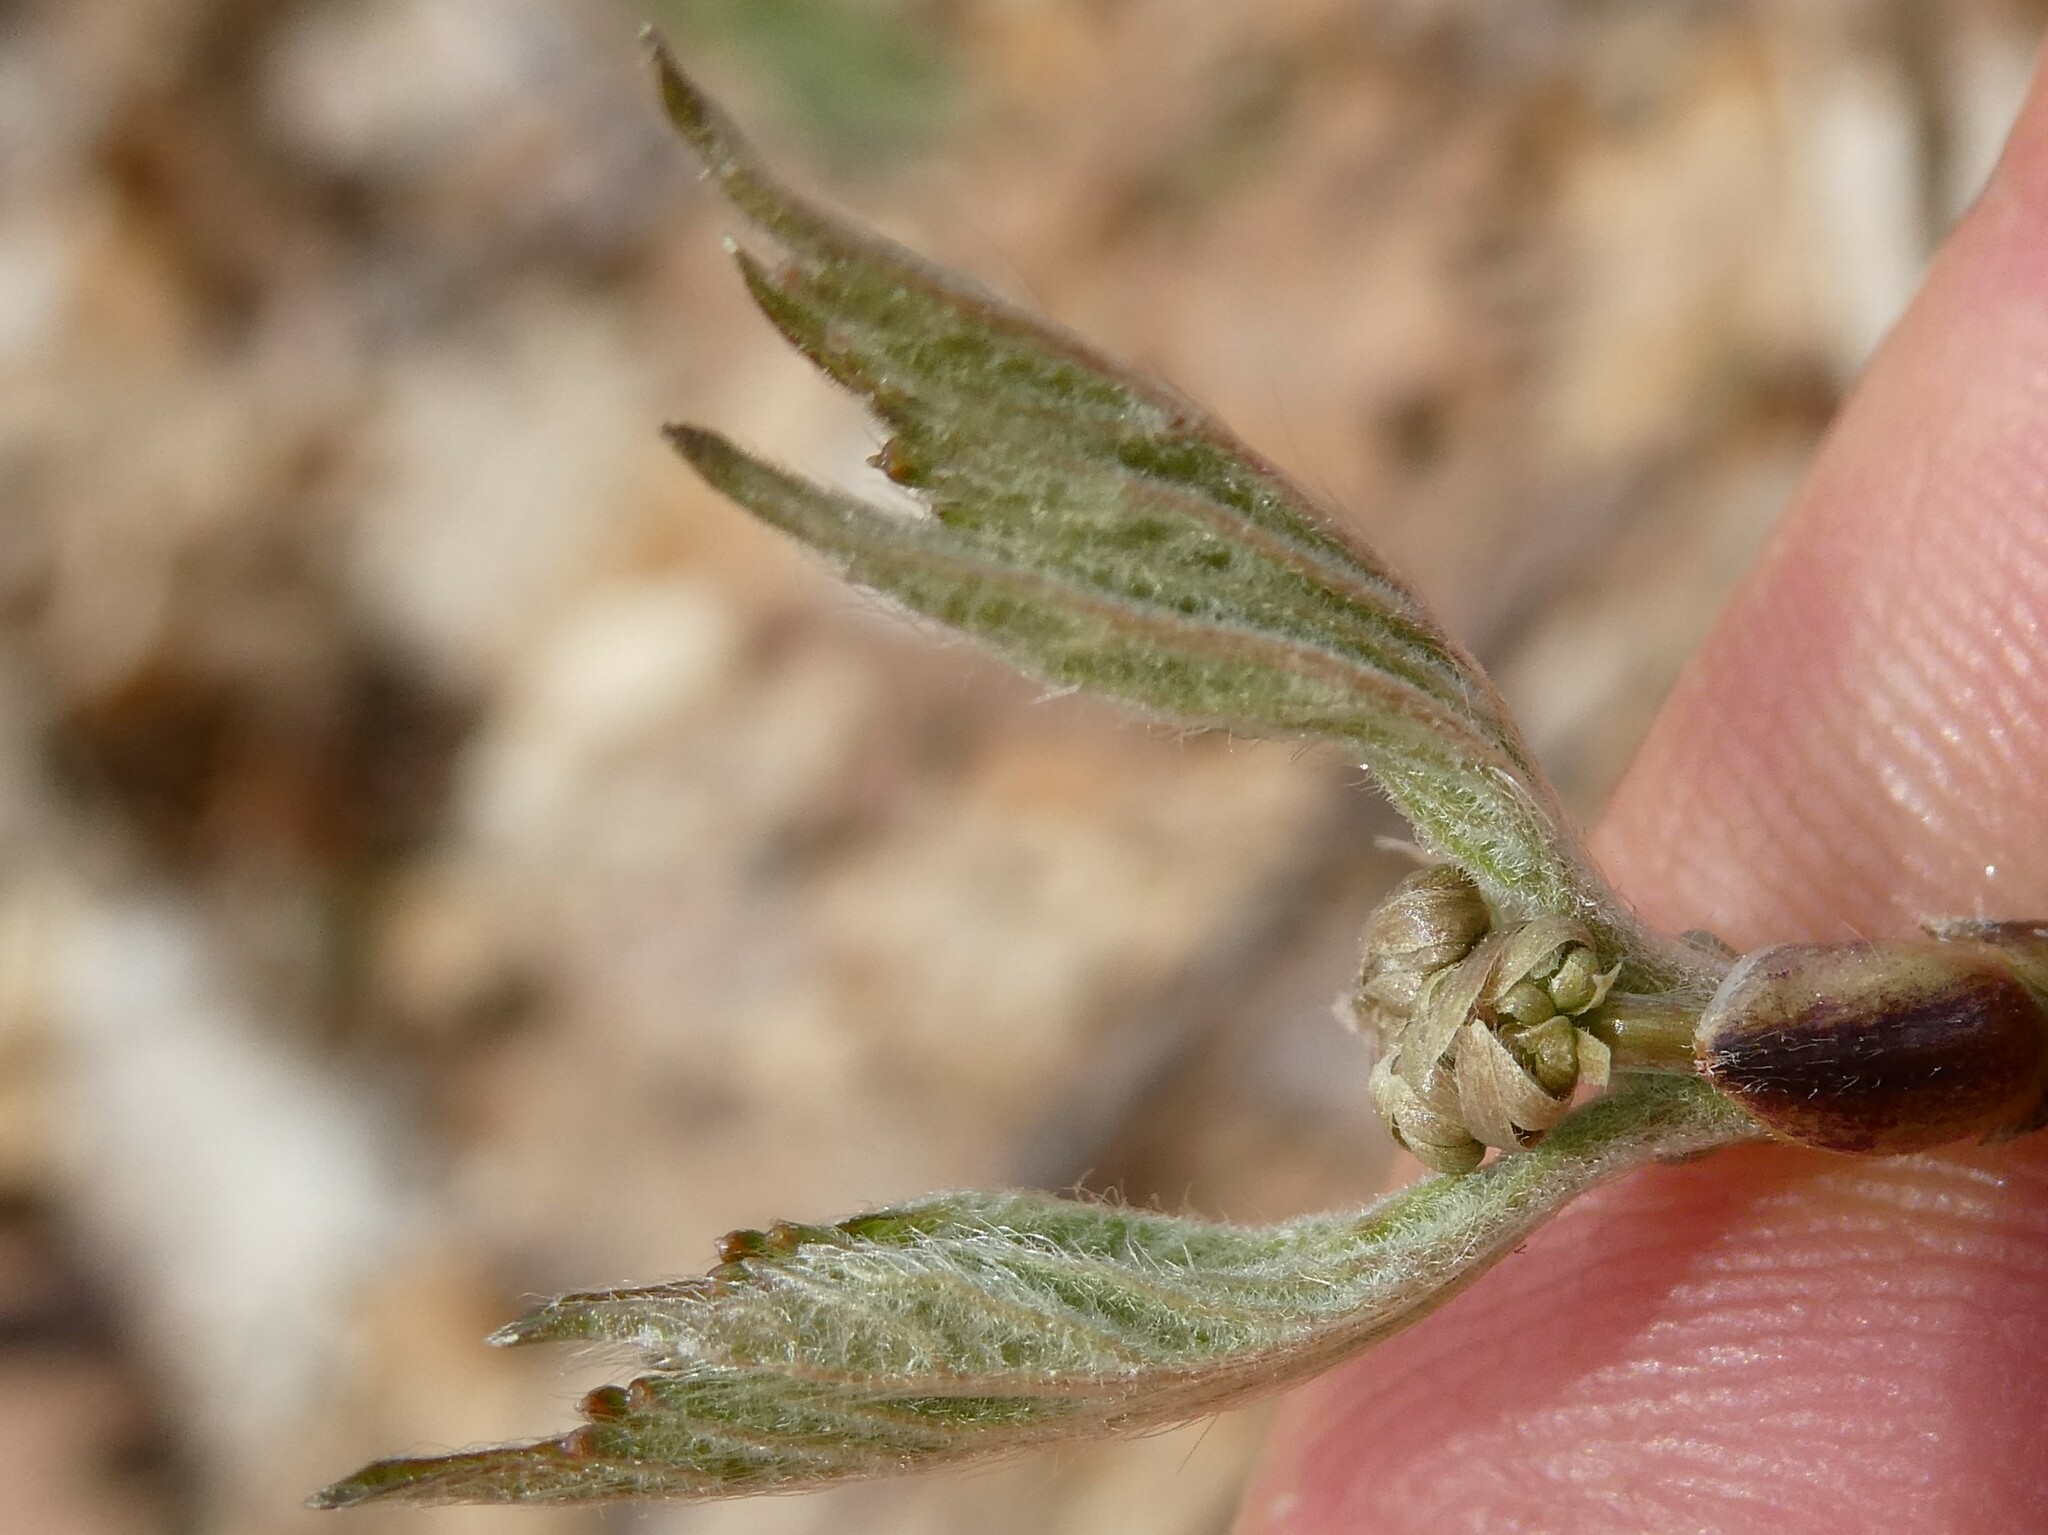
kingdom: Plantae
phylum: Tracheophyta
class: Magnoliopsida
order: Dipsacales
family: Viburnaceae
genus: Viburnum
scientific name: Viburnum acerifolium
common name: Dockmackie
